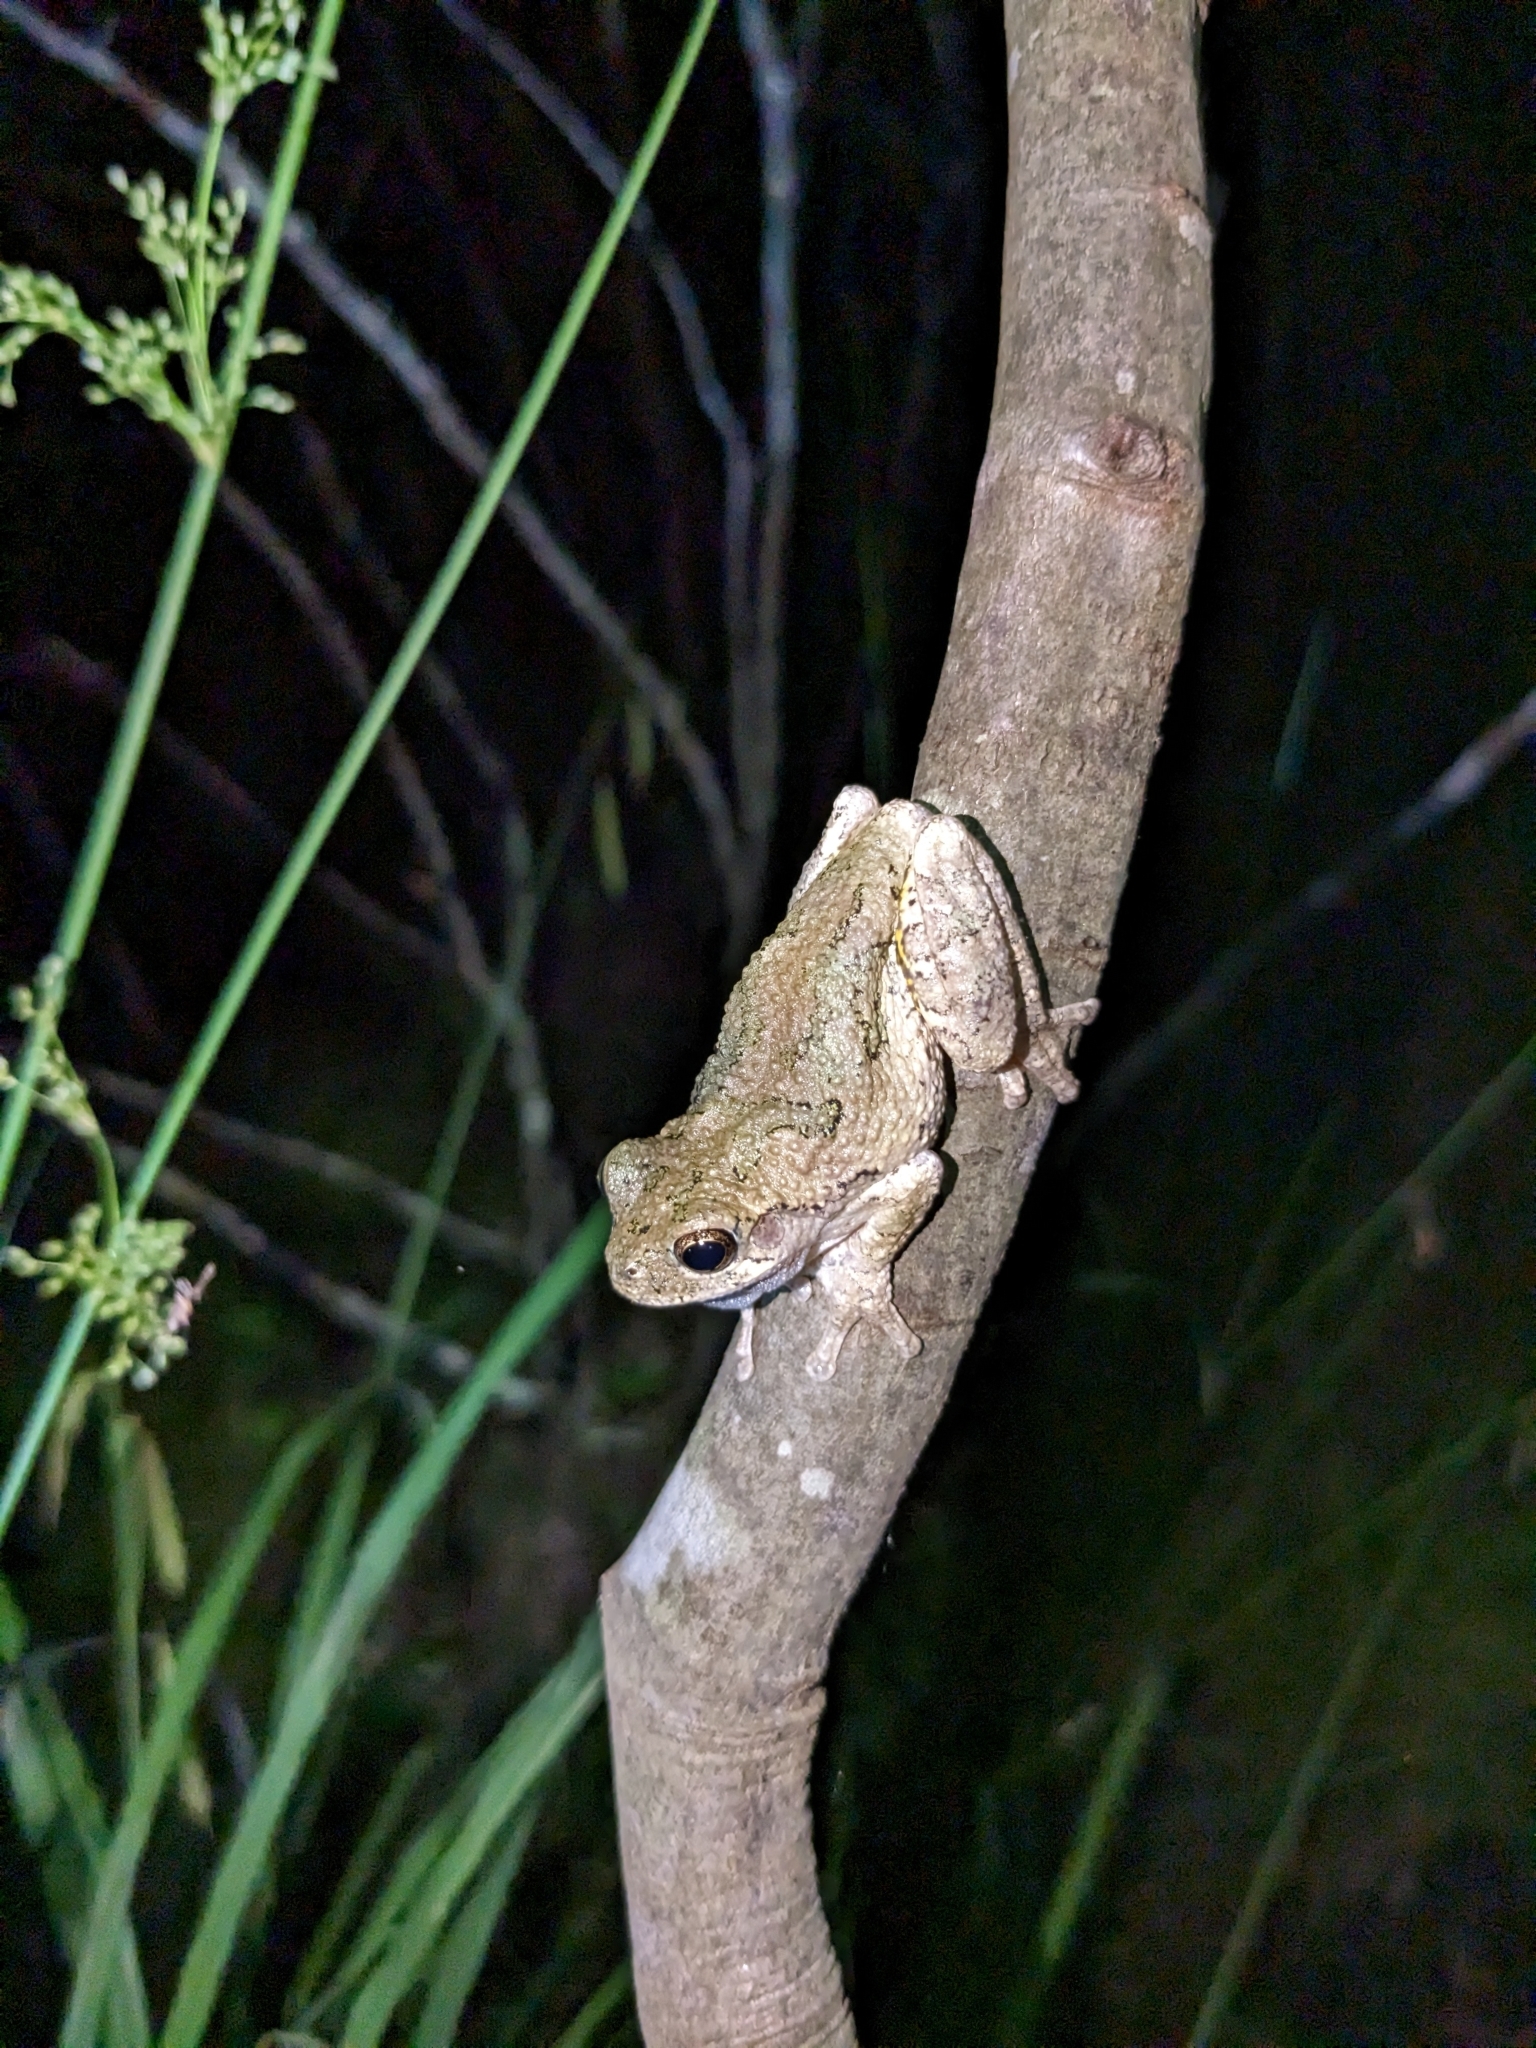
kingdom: Animalia
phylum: Chordata
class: Amphibia
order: Anura
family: Hylidae
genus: Dryophytes
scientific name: Dryophytes versicolor
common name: Gray treefrog
